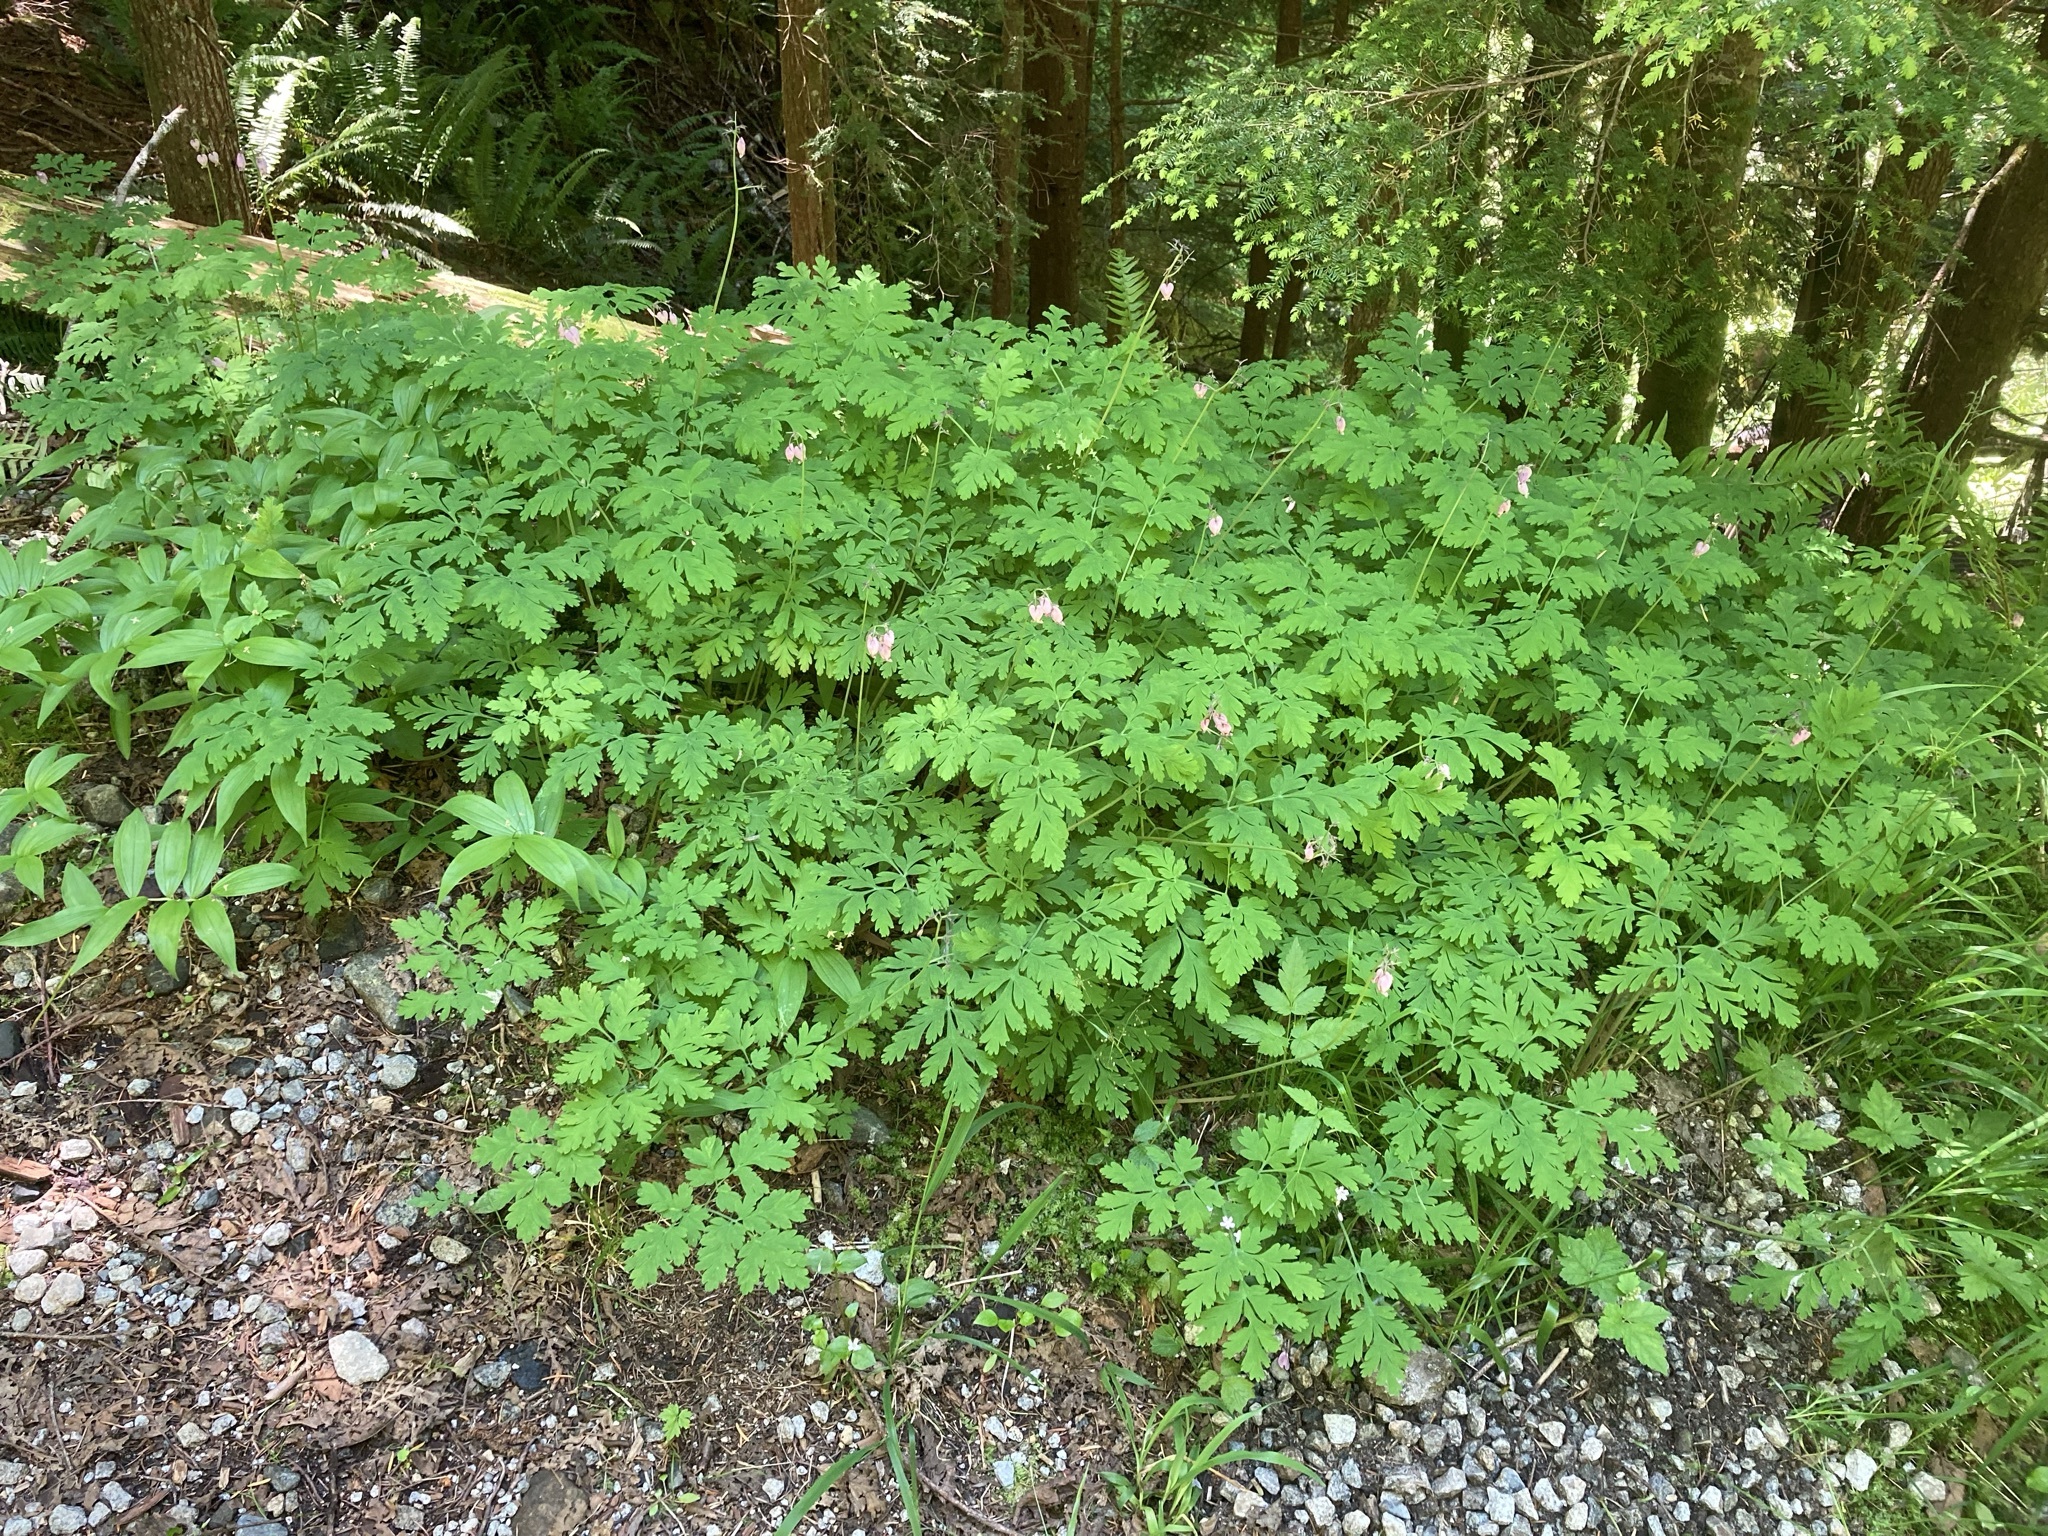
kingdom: Plantae
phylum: Tracheophyta
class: Magnoliopsida
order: Ranunculales
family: Papaveraceae
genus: Dicentra
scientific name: Dicentra formosa
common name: Bleeding-heart
